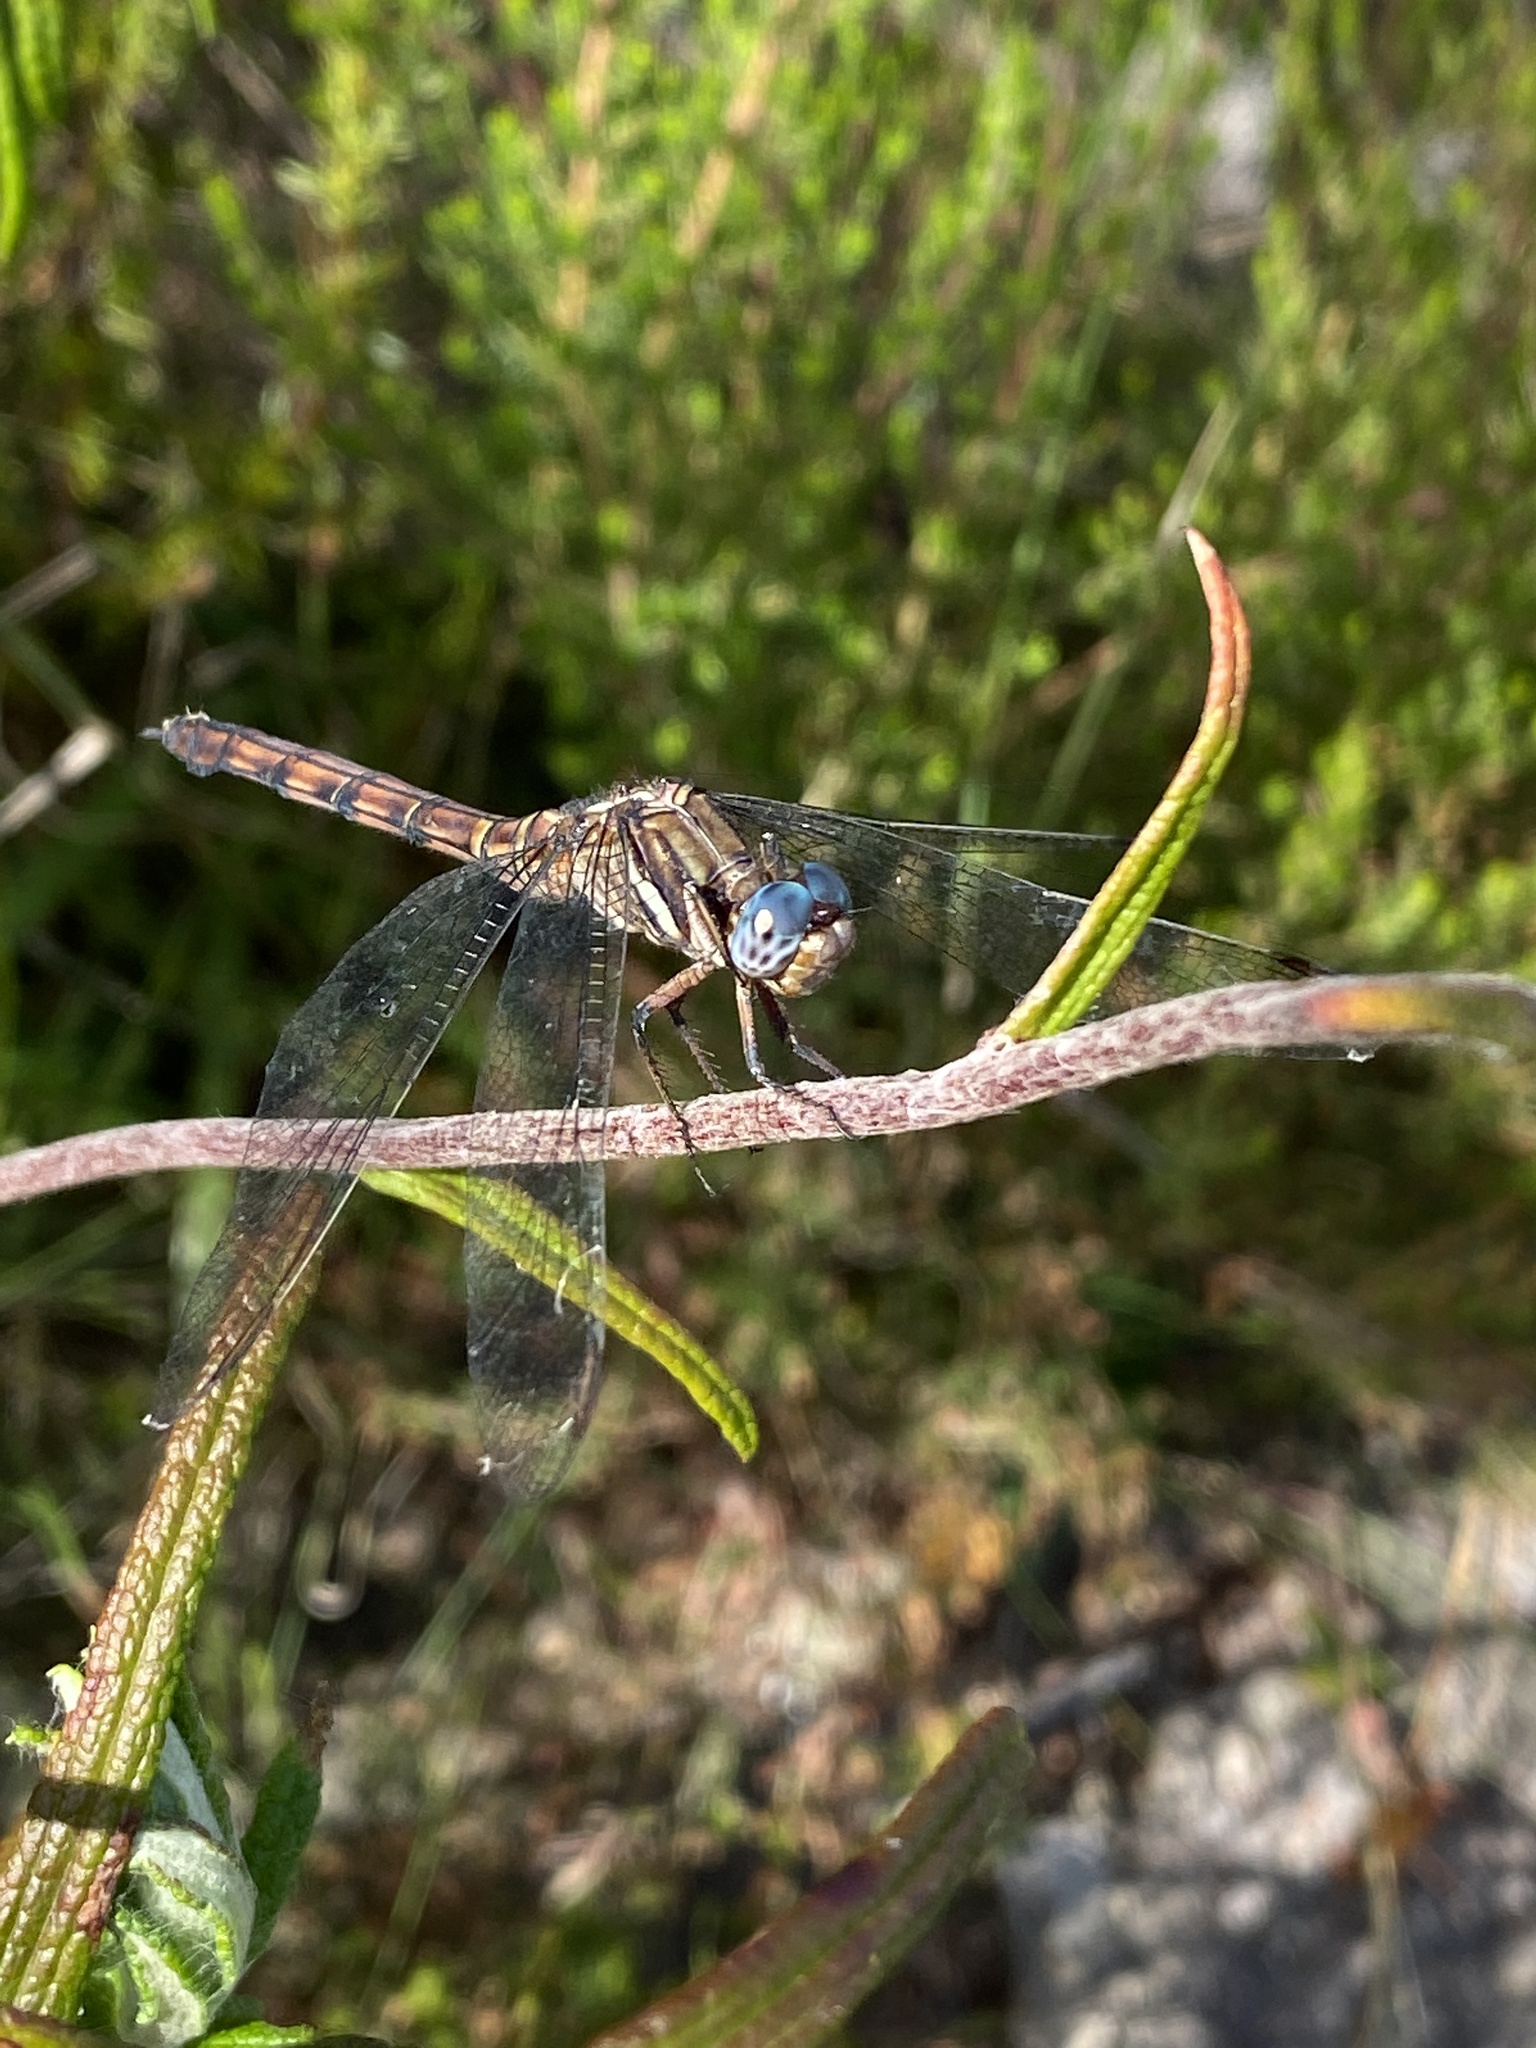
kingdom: Animalia
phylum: Arthropoda
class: Insecta
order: Odonata
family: Libellulidae
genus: Orthetrum
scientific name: Orthetrum julia
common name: Julia skimmer
